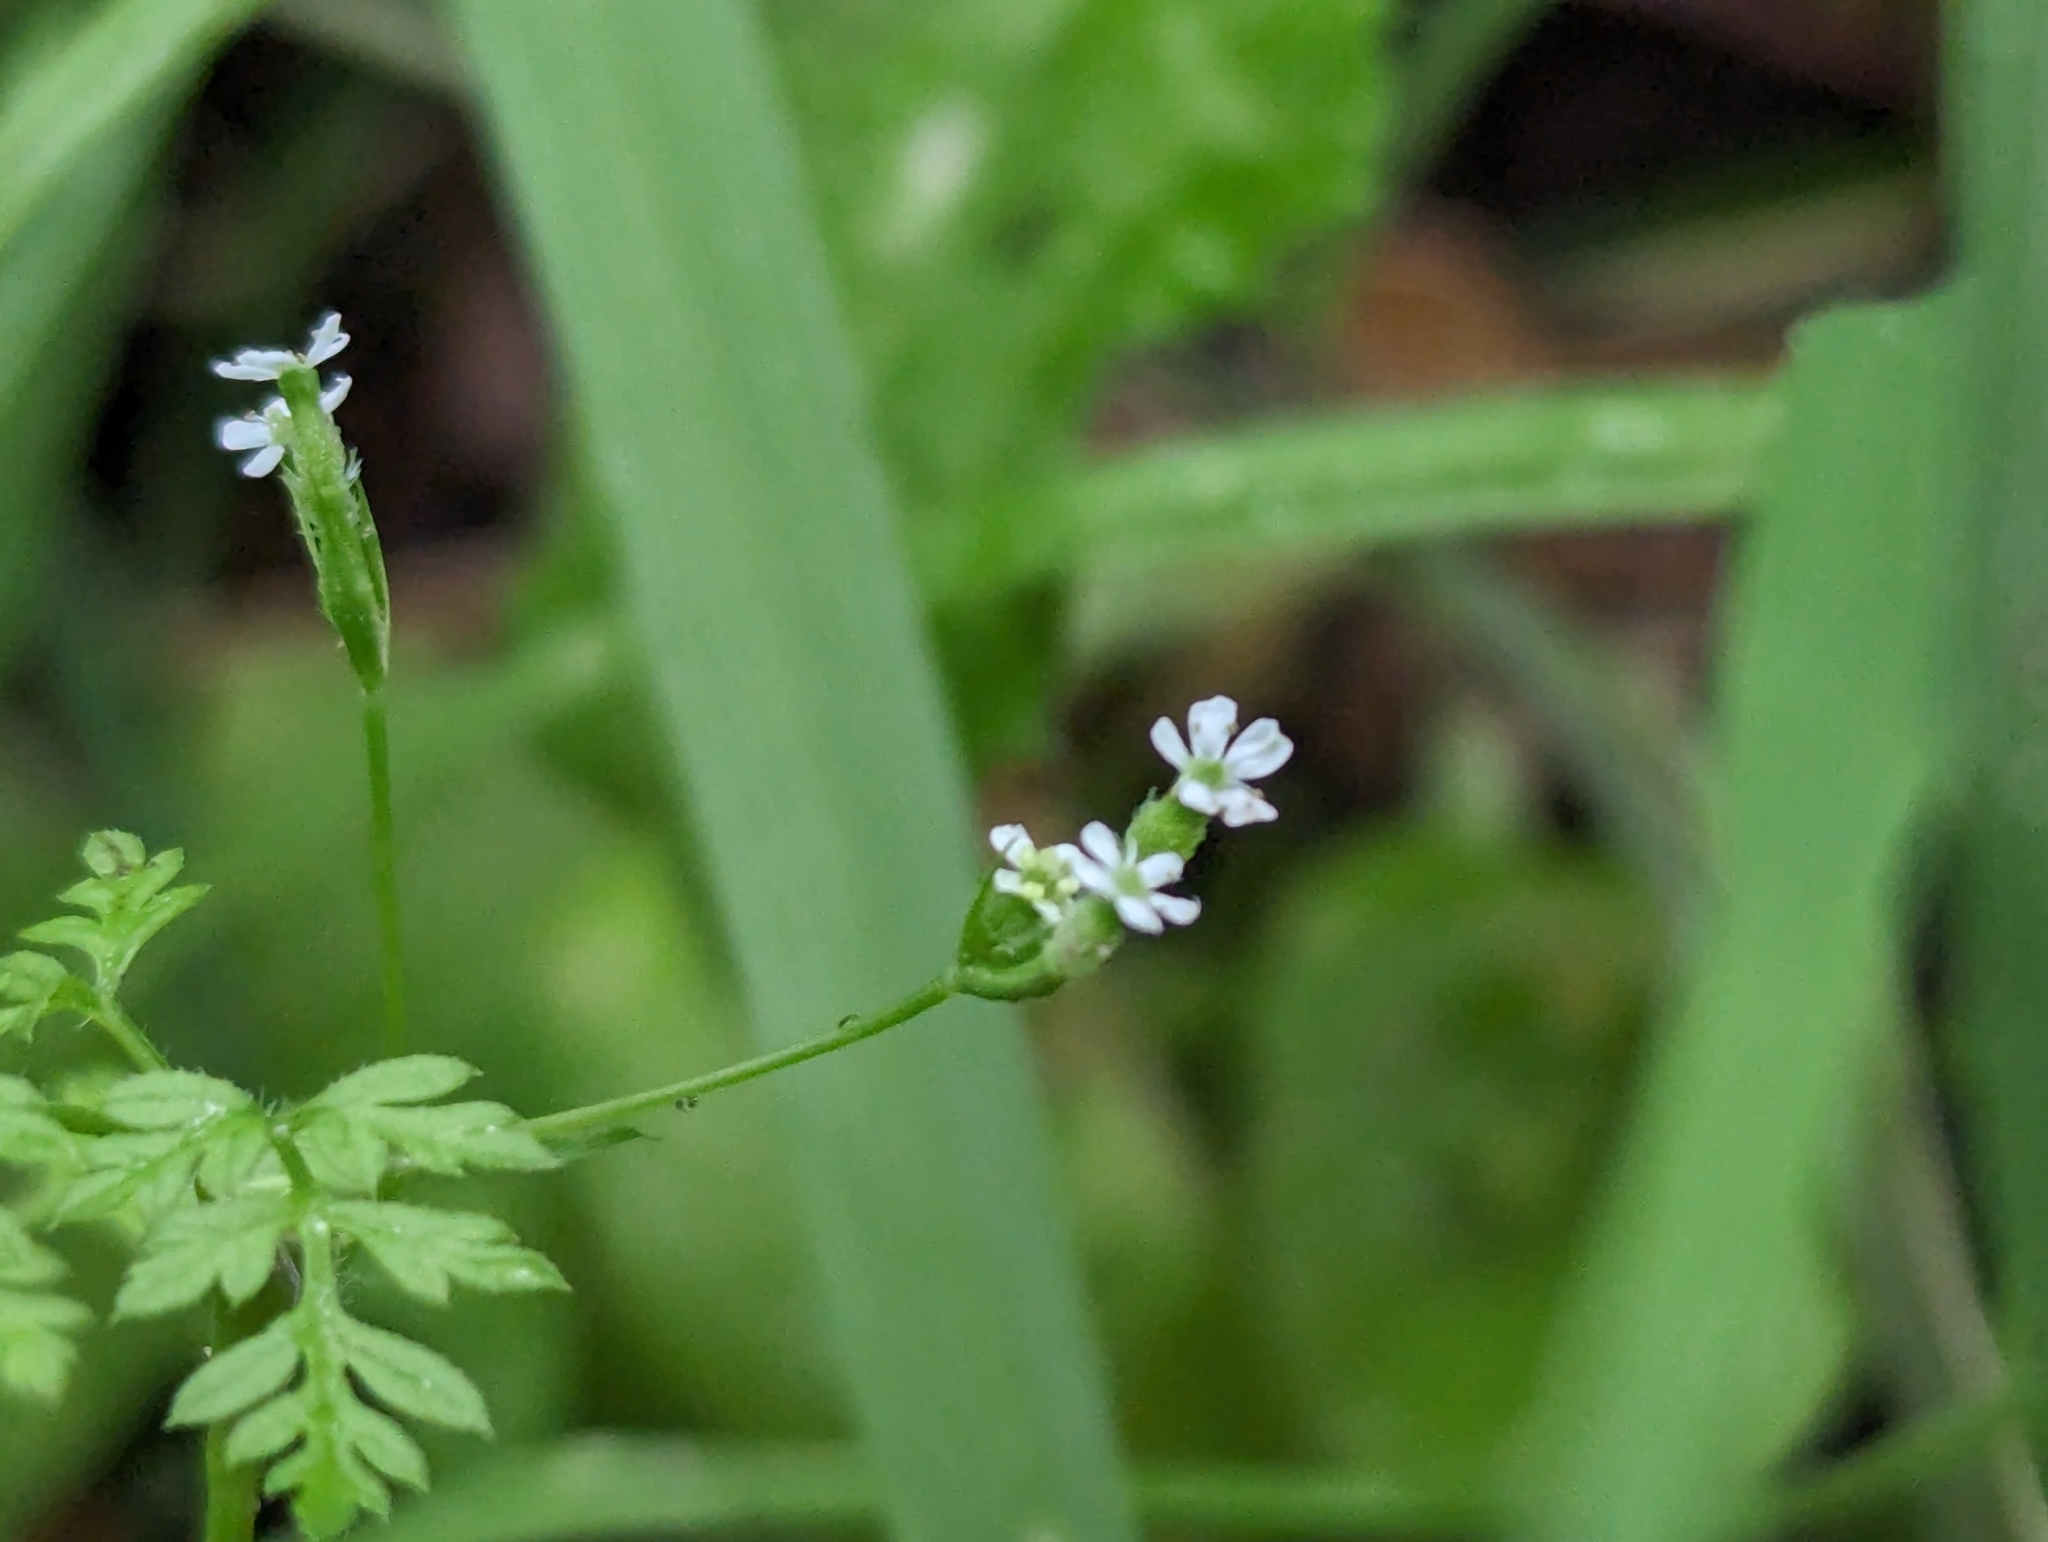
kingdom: Plantae
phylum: Tracheophyta
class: Magnoliopsida
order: Apiales
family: Apiaceae
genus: Anthriscus
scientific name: Anthriscus caucalis
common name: Bur chervil
